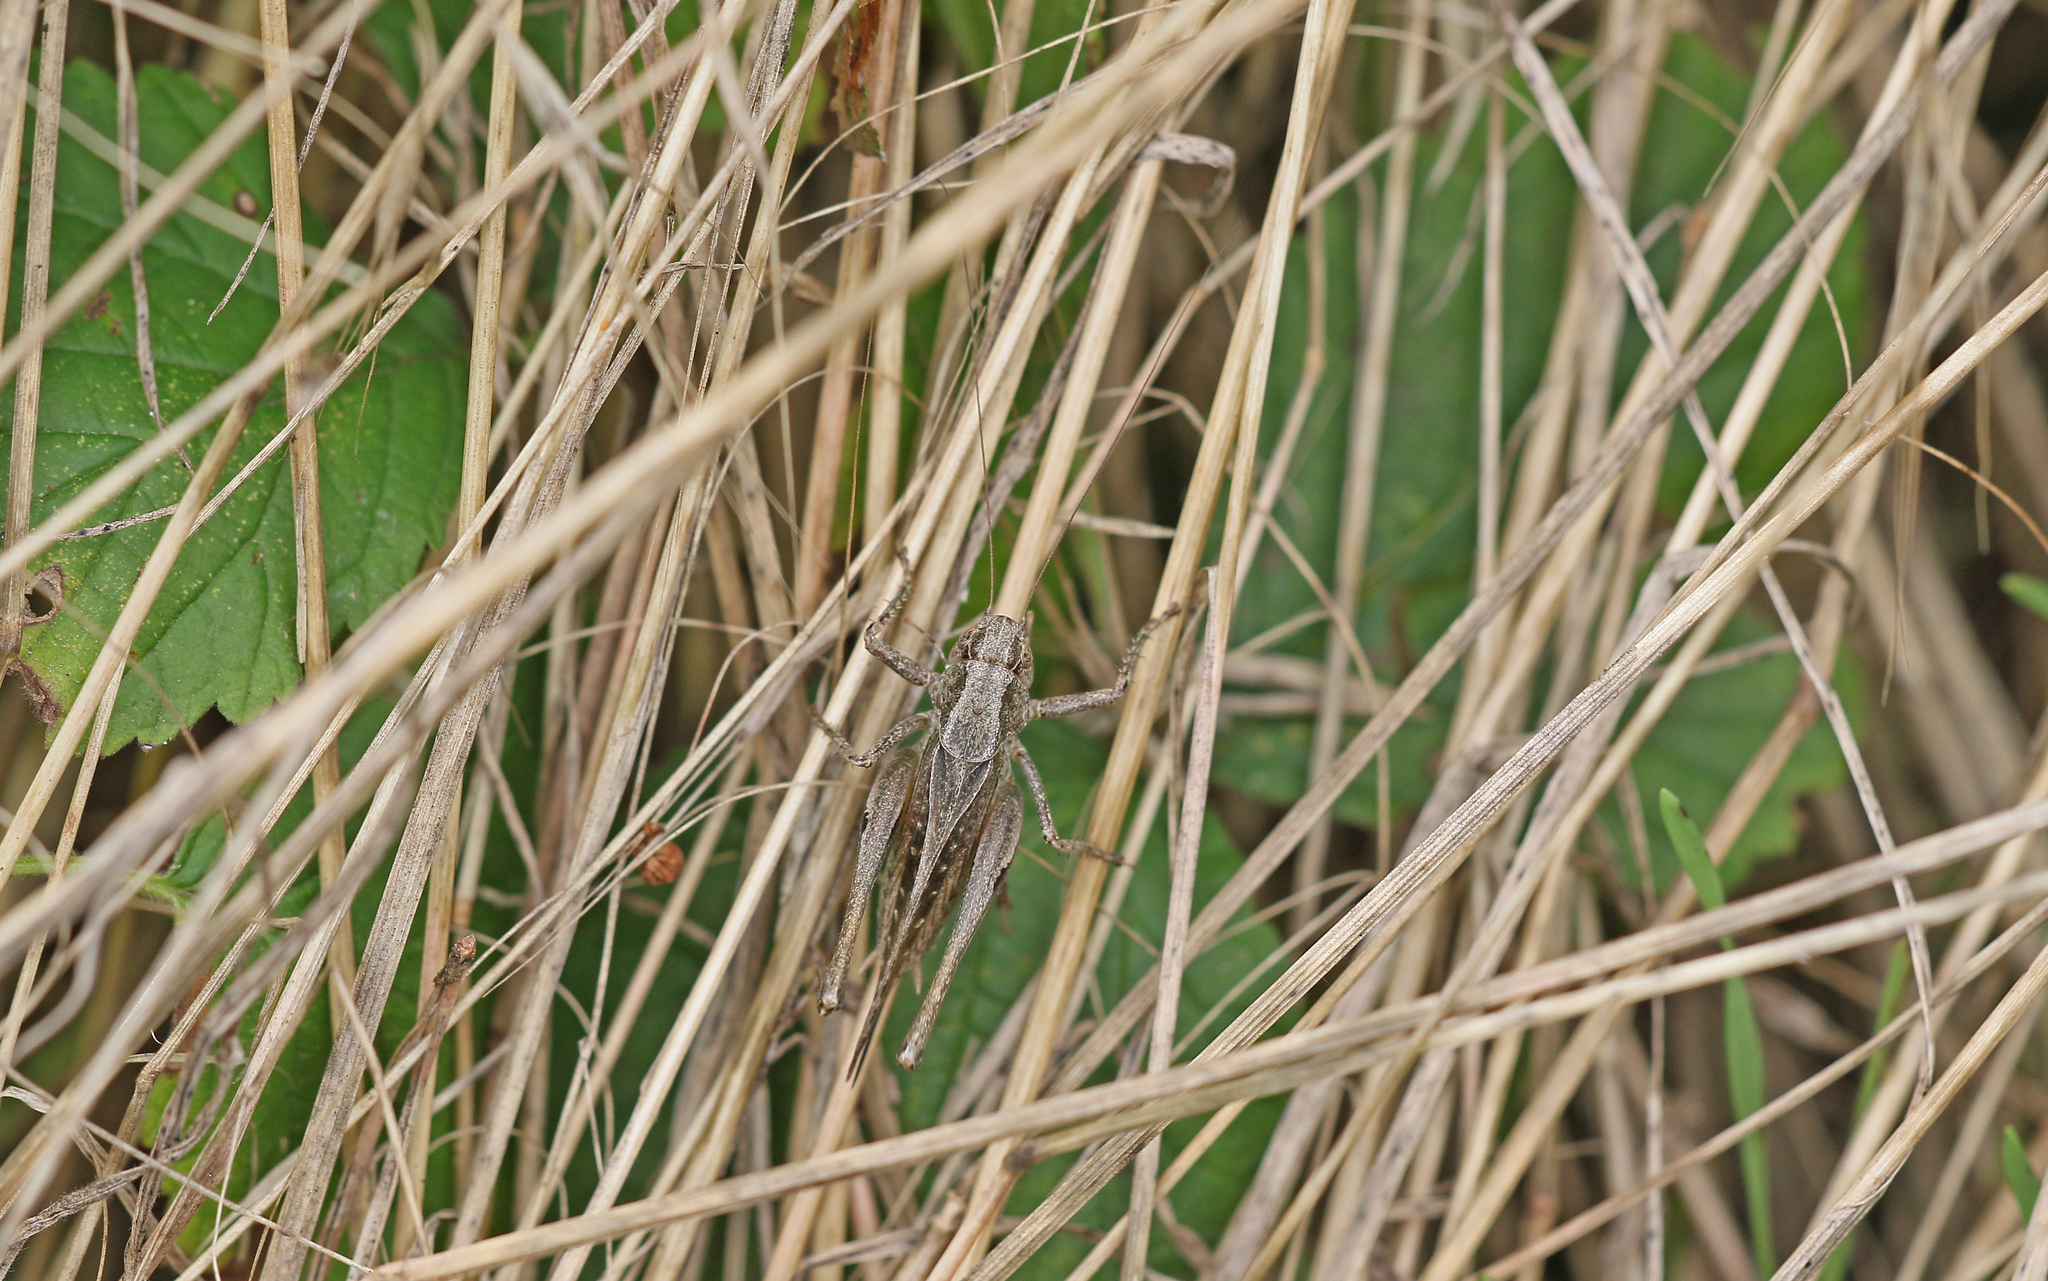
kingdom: Animalia
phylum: Arthropoda
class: Insecta
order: Orthoptera
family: Tettigoniidae
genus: Platycleis
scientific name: Platycleis albopunctata
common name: Grey bush-cricket
